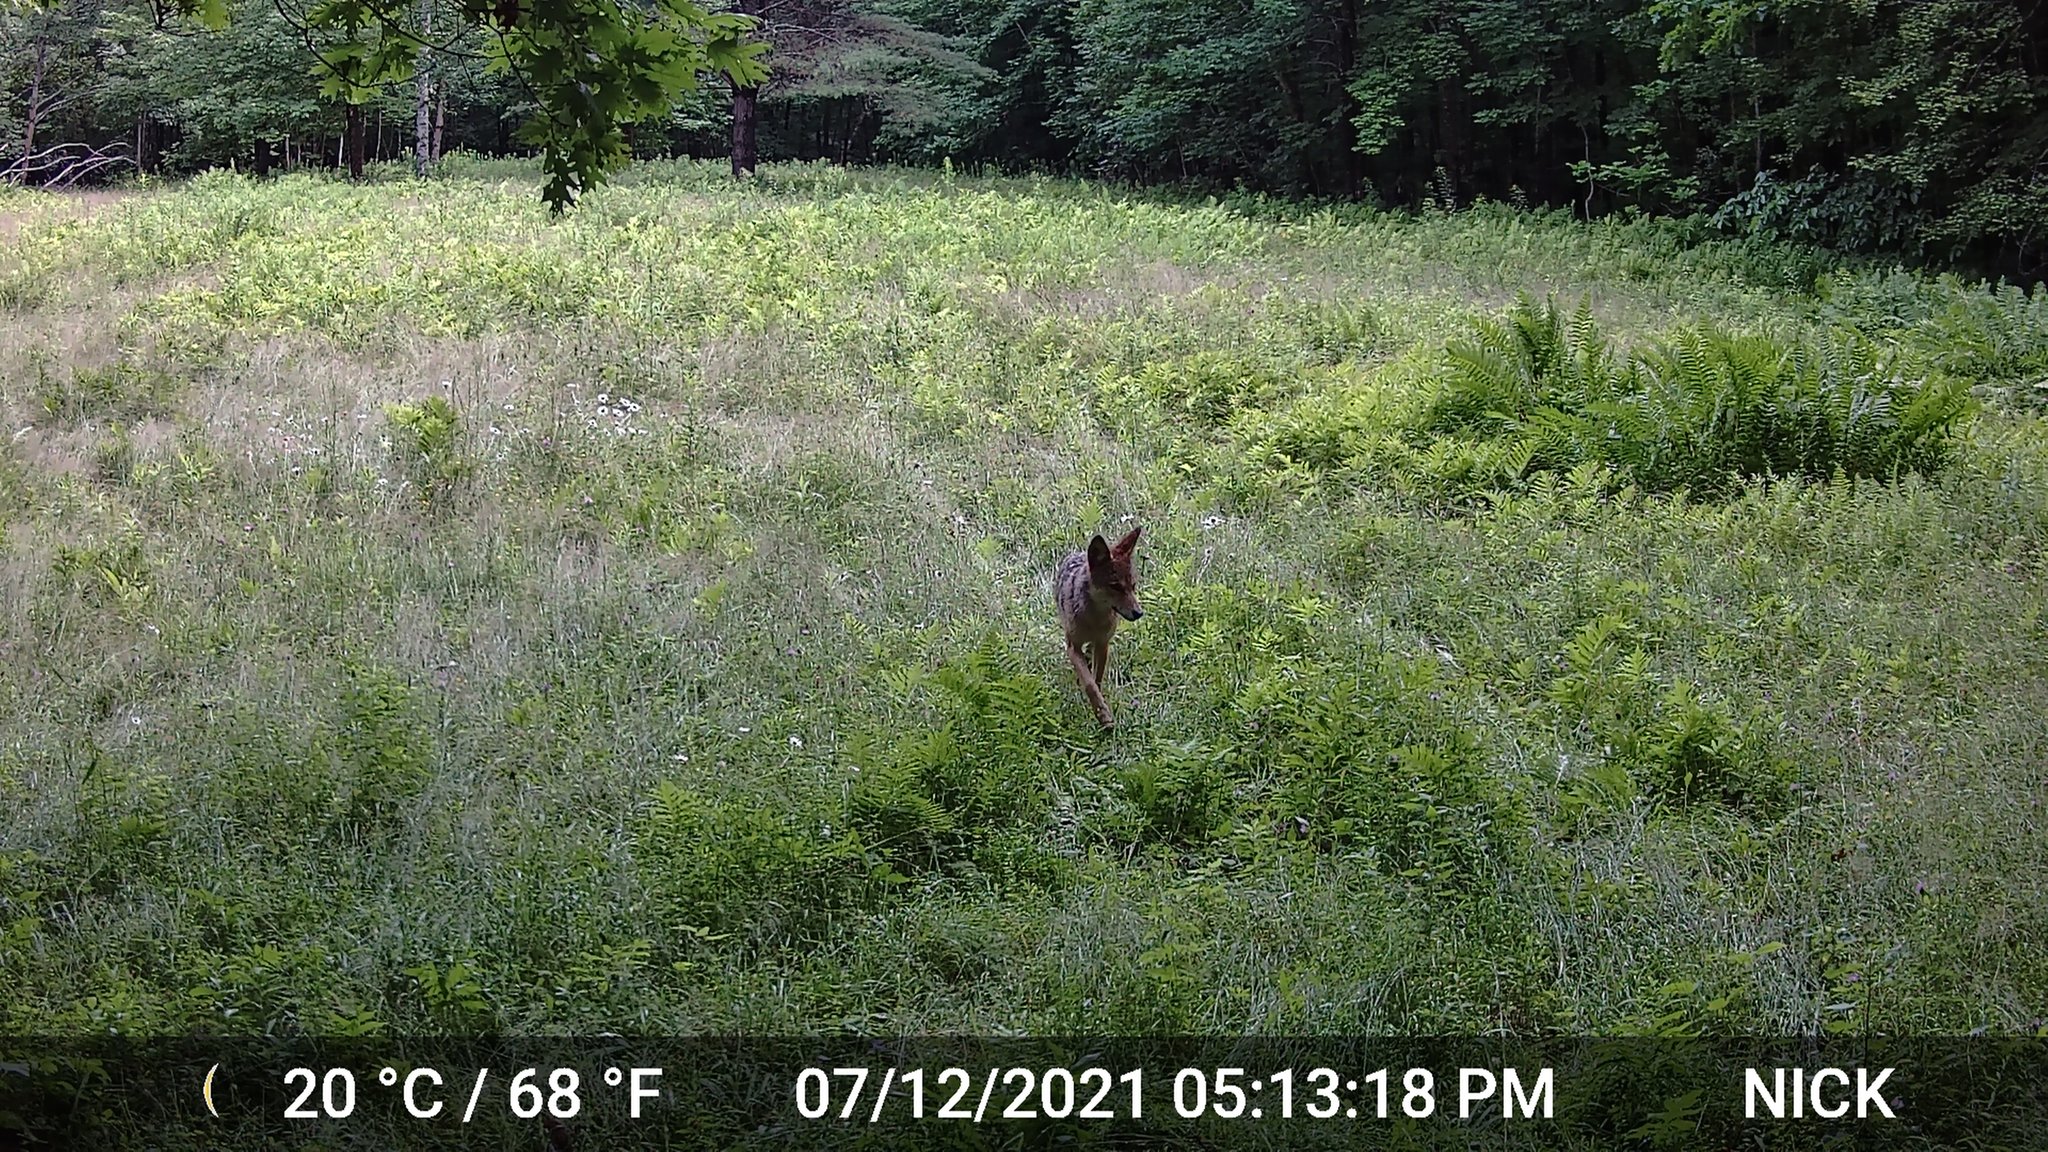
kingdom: Animalia
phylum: Chordata
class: Mammalia
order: Carnivora
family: Canidae
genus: Canis
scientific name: Canis latrans
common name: Coyote
